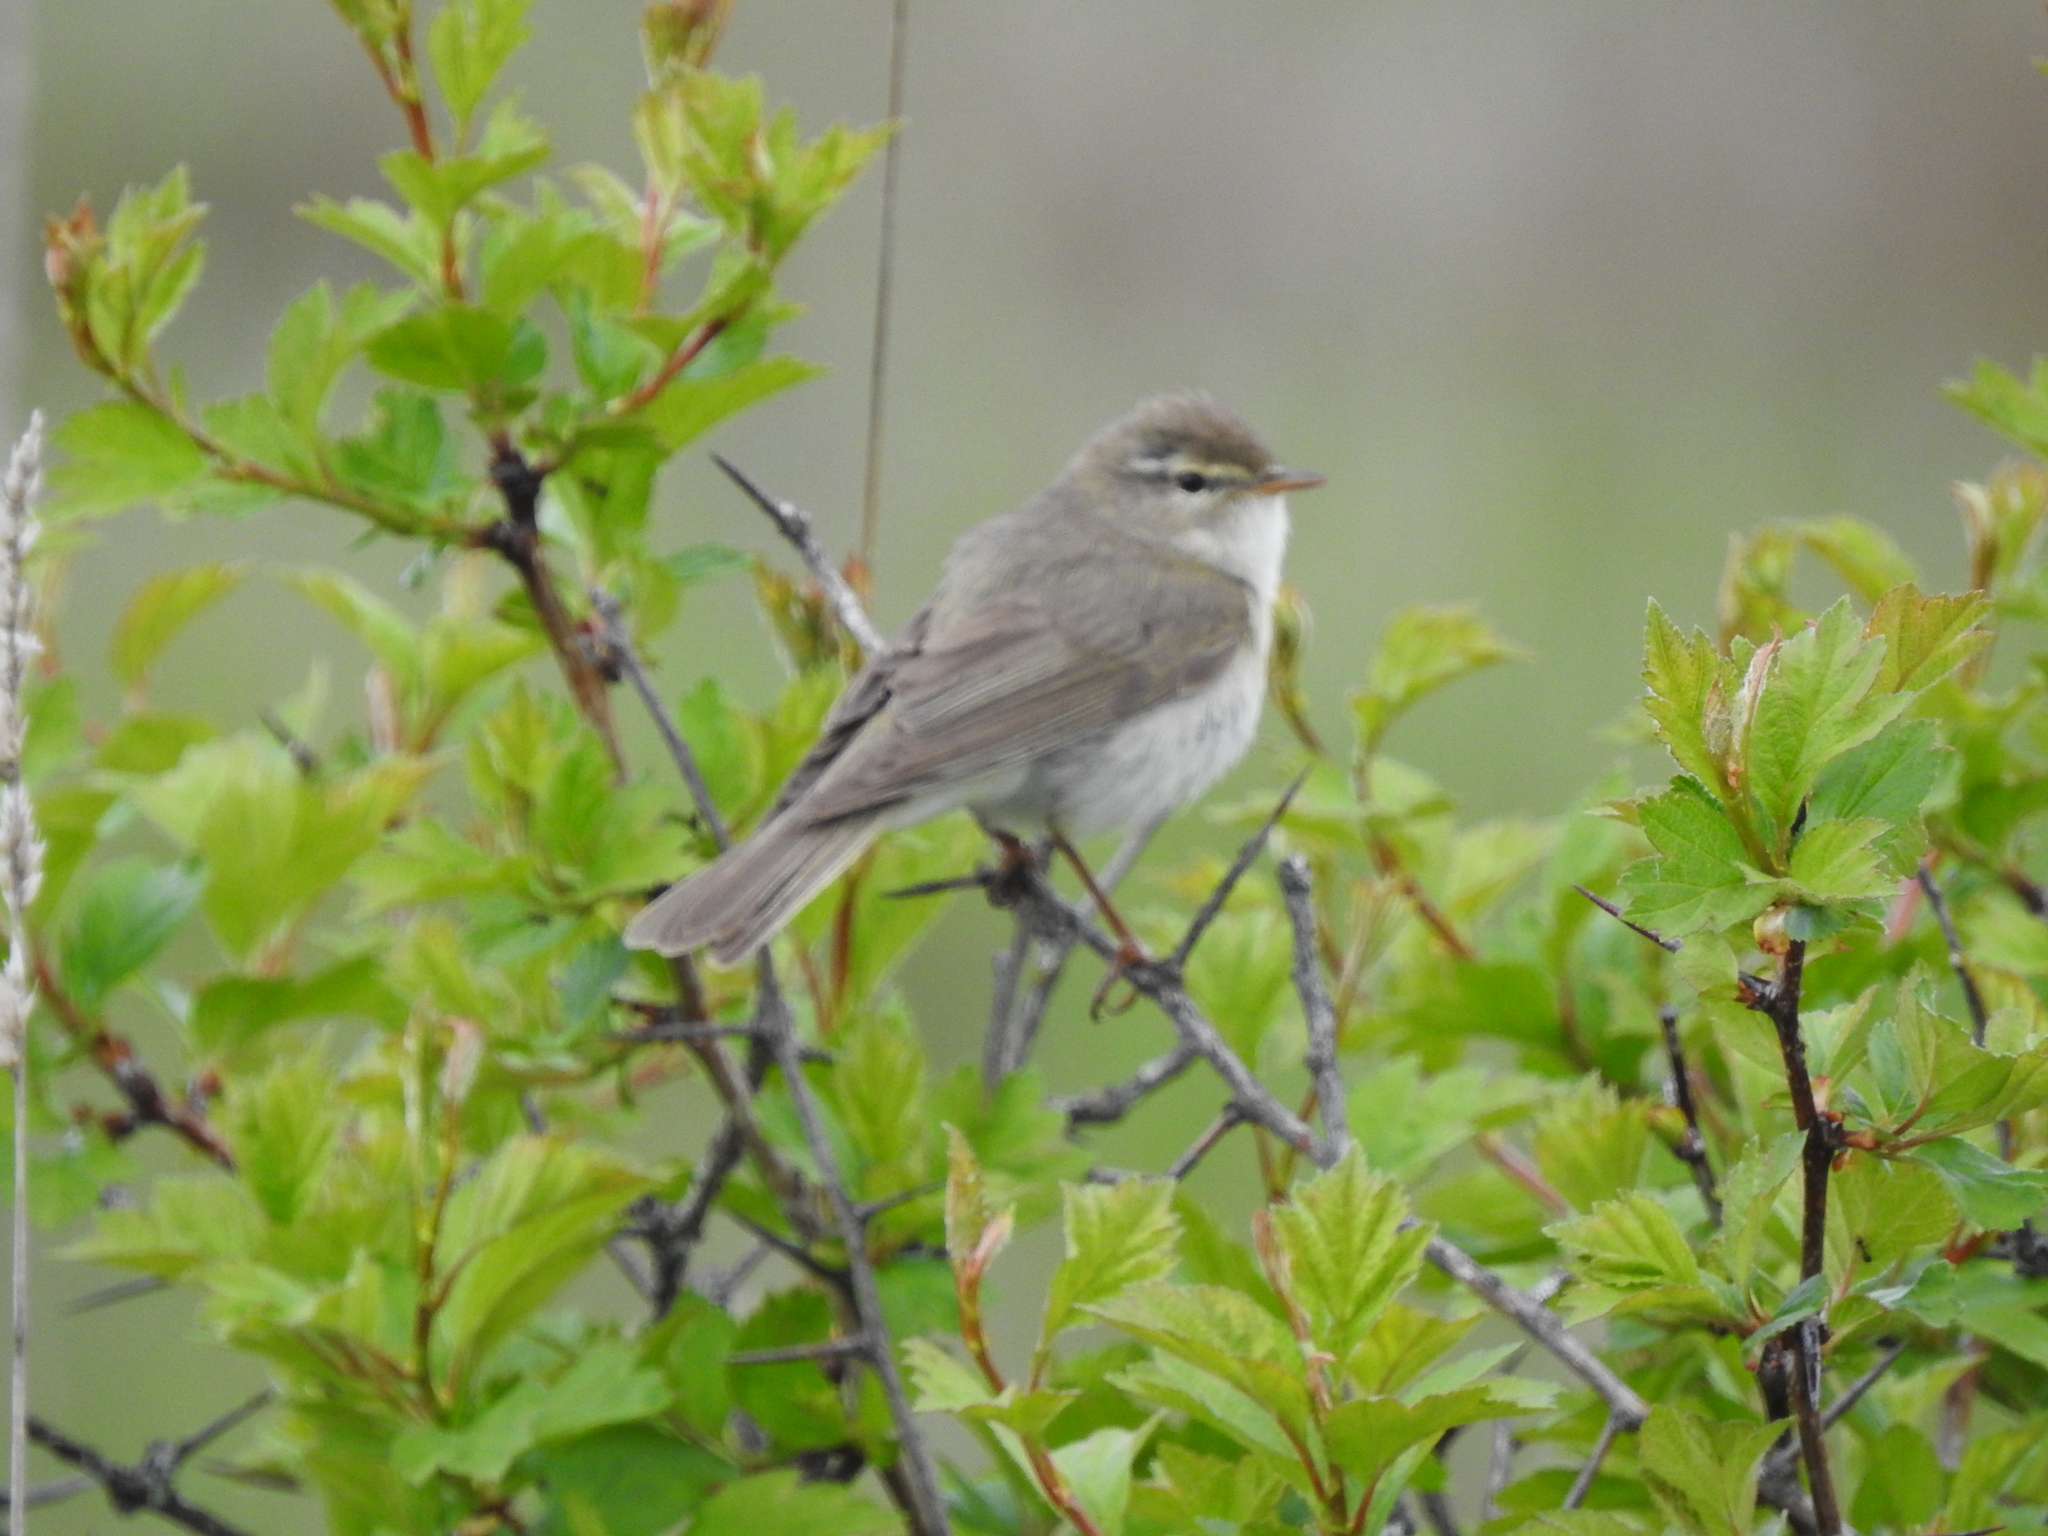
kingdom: Animalia
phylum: Chordata
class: Aves
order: Passeriformes
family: Phylloscopidae
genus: Phylloscopus
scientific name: Phylloscopus trochilus
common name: Willow warbler
